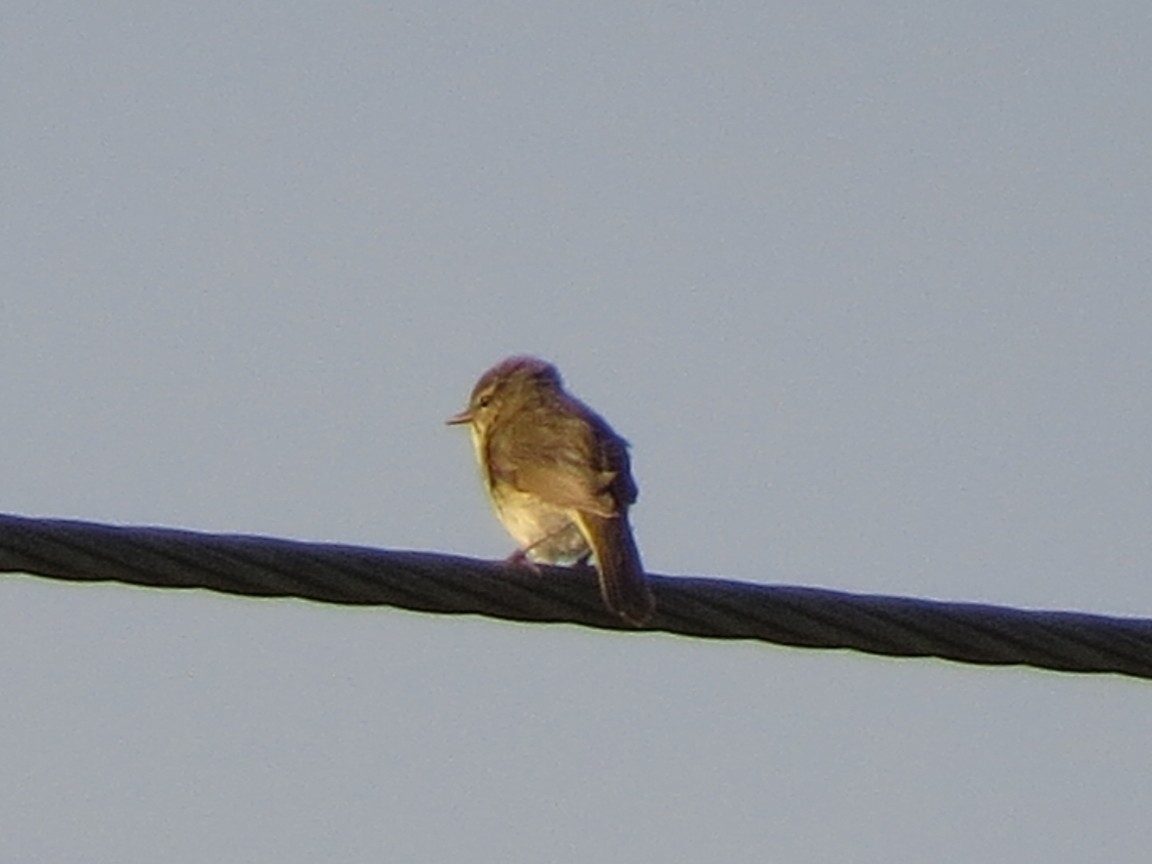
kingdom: Animalia
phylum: Chordata
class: Aves
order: Passeriformes
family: Phylloscopidae
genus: Phylloscopus
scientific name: Phylloscopus collybita
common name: Common chiffchaff
